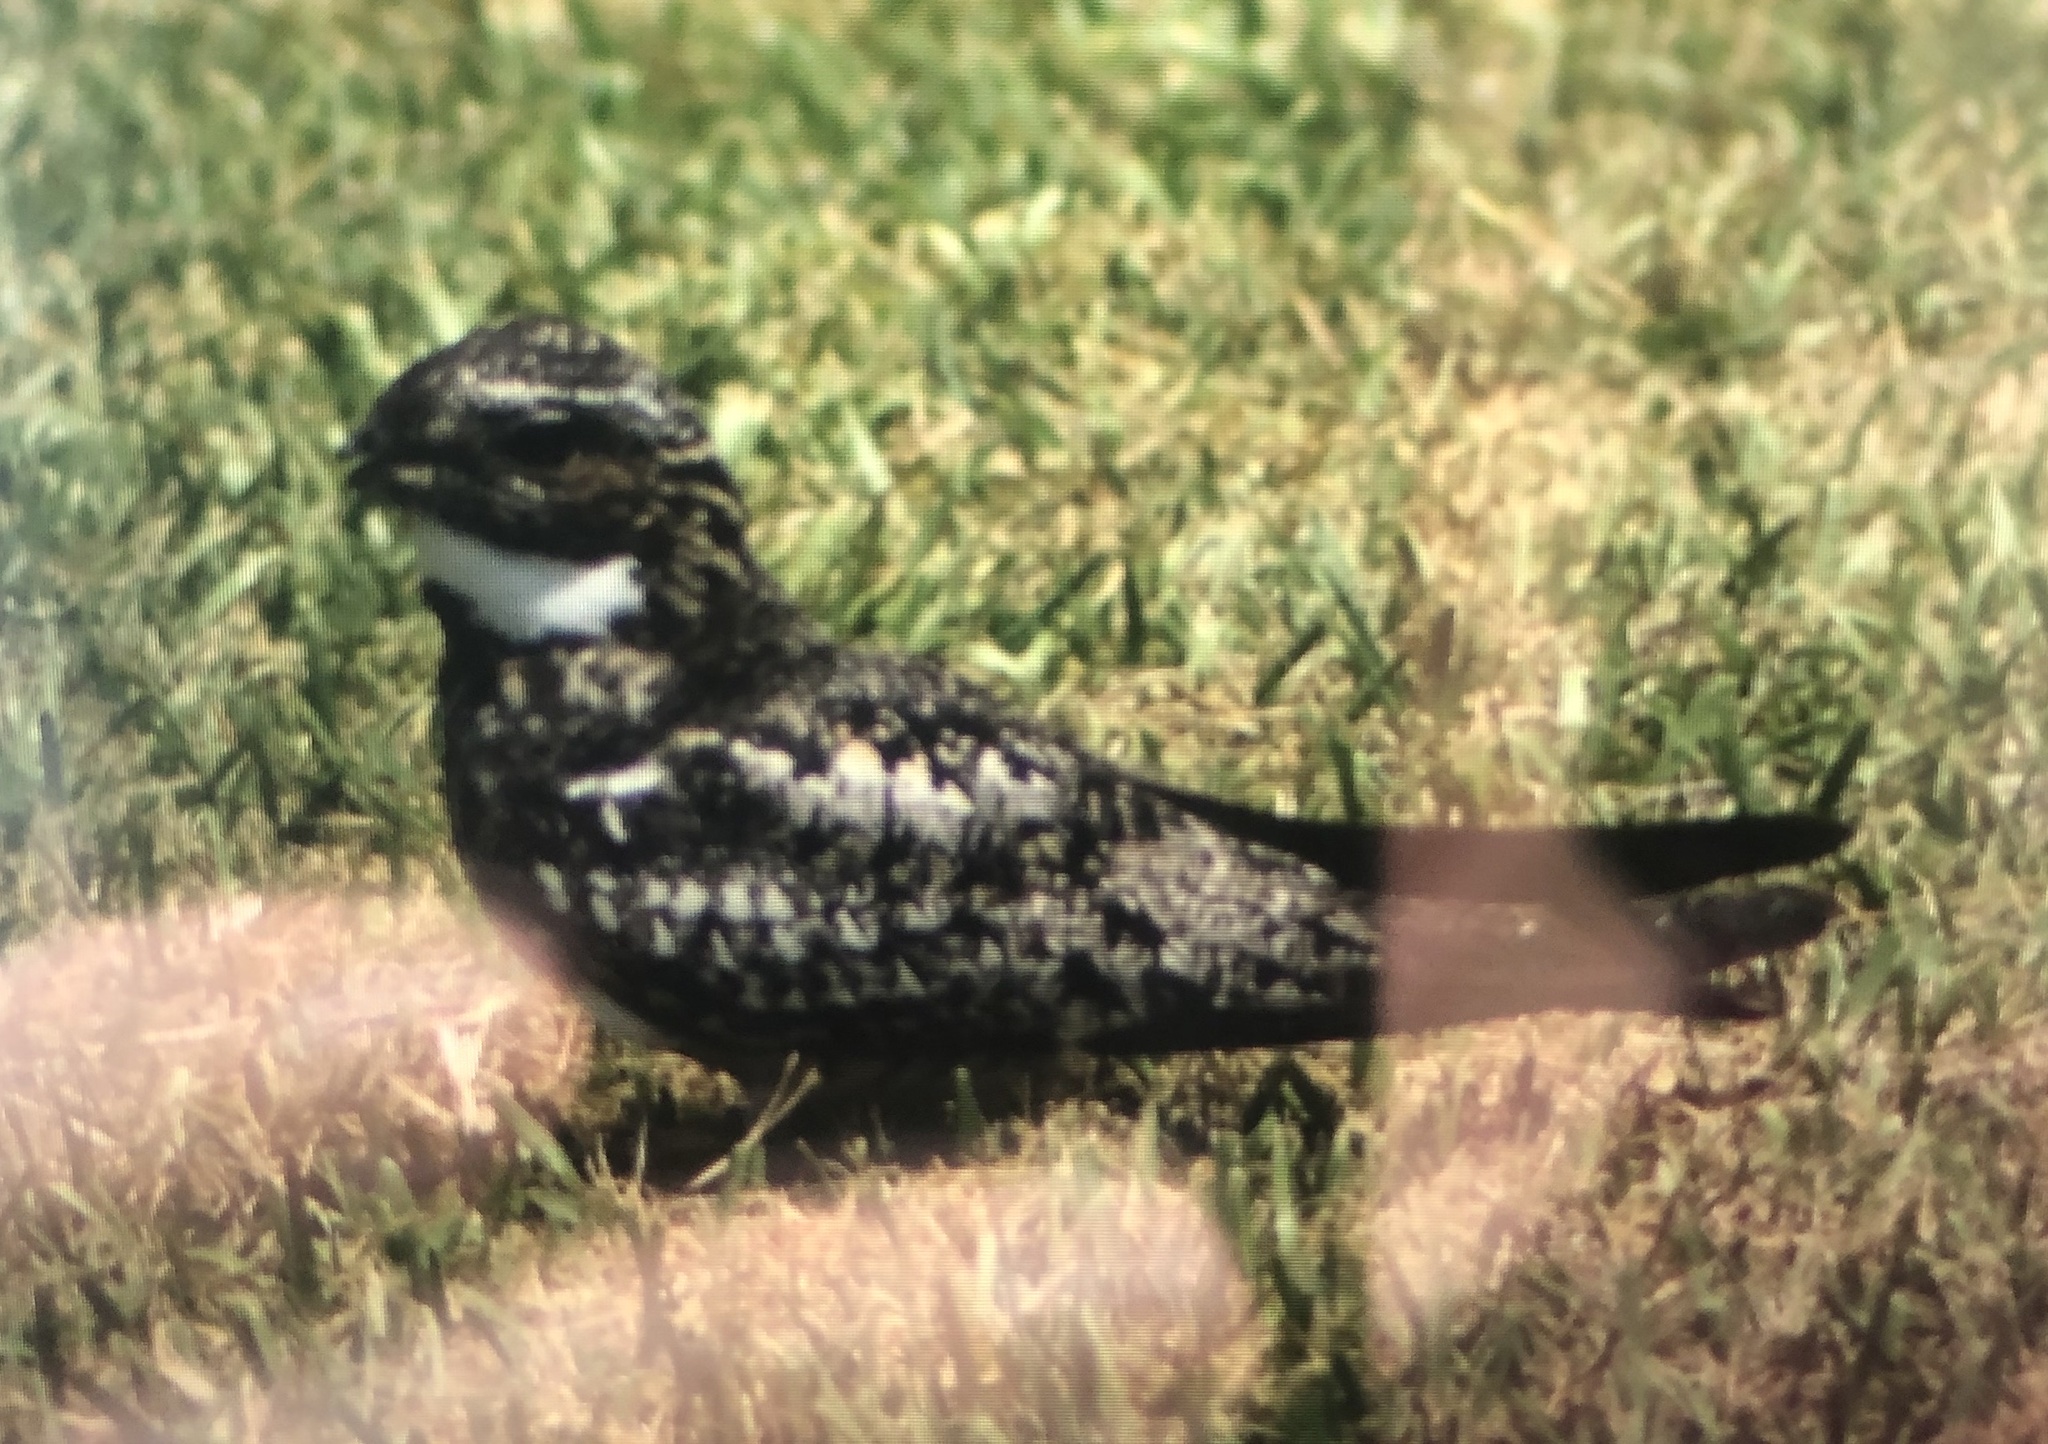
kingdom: Animalia
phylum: Chordata
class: Aves
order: Caprimulgiformes
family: Caprimulgidae
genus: Chordeiles
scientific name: Chordeiles minor
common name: Common nighthawk
